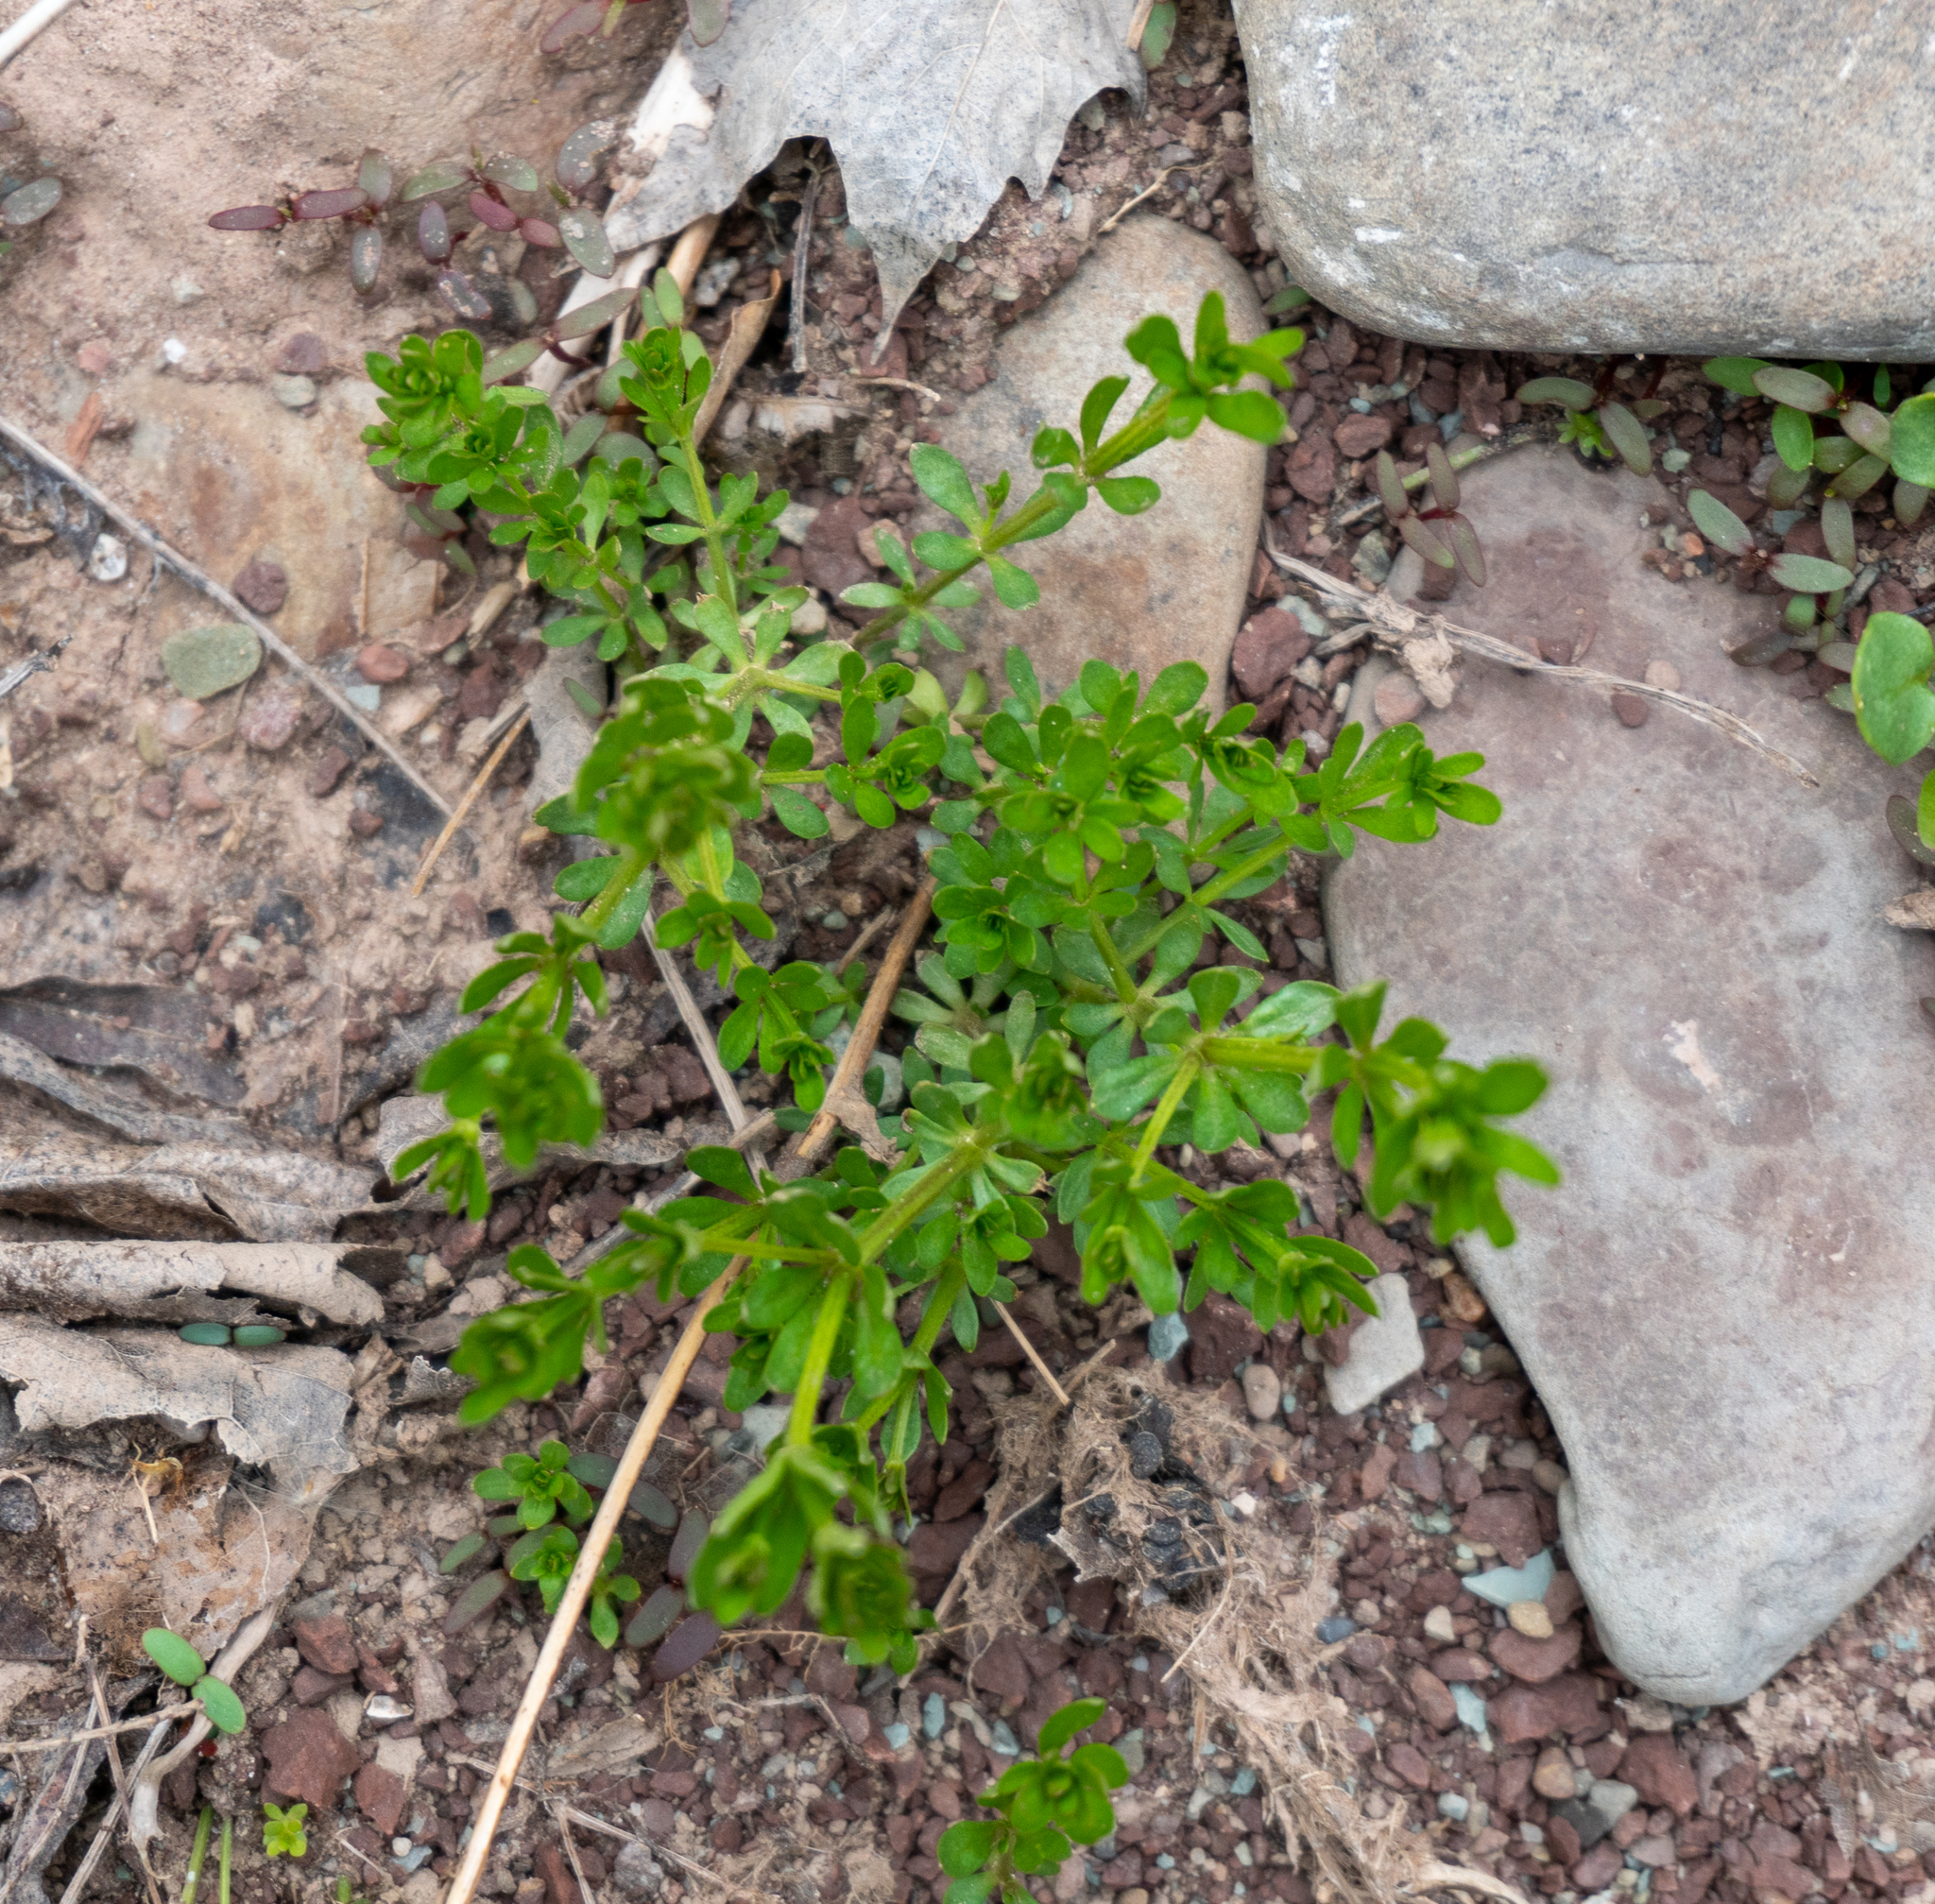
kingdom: Plantae
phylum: Tracheophyta
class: Magnoliopsida
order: Gentianales
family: Rubiaceae
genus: Galium
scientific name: Galium mollugo
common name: Hedge bedstraw
